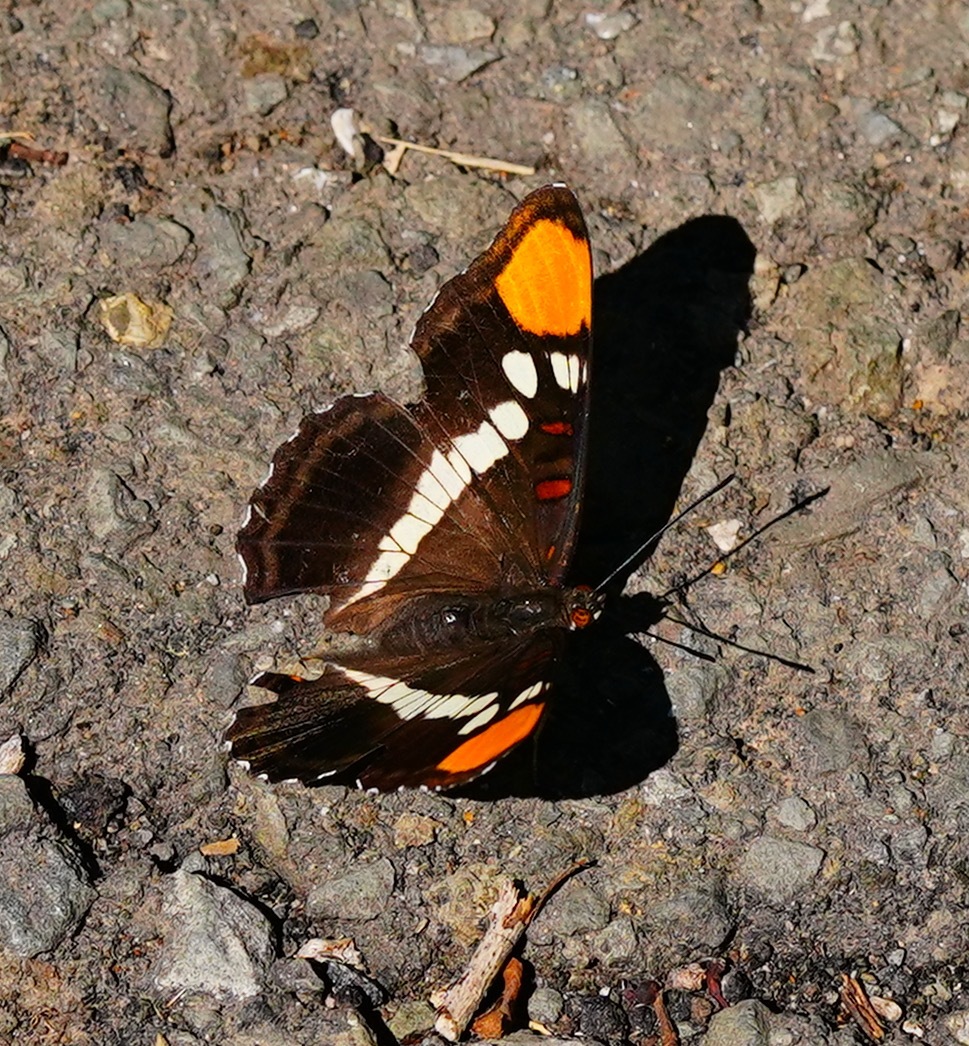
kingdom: Animalia
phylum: Arthropoda
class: Insecta
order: Lepidoptera
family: Nymphalidae
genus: Limenitis
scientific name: Limenitis bredowii
